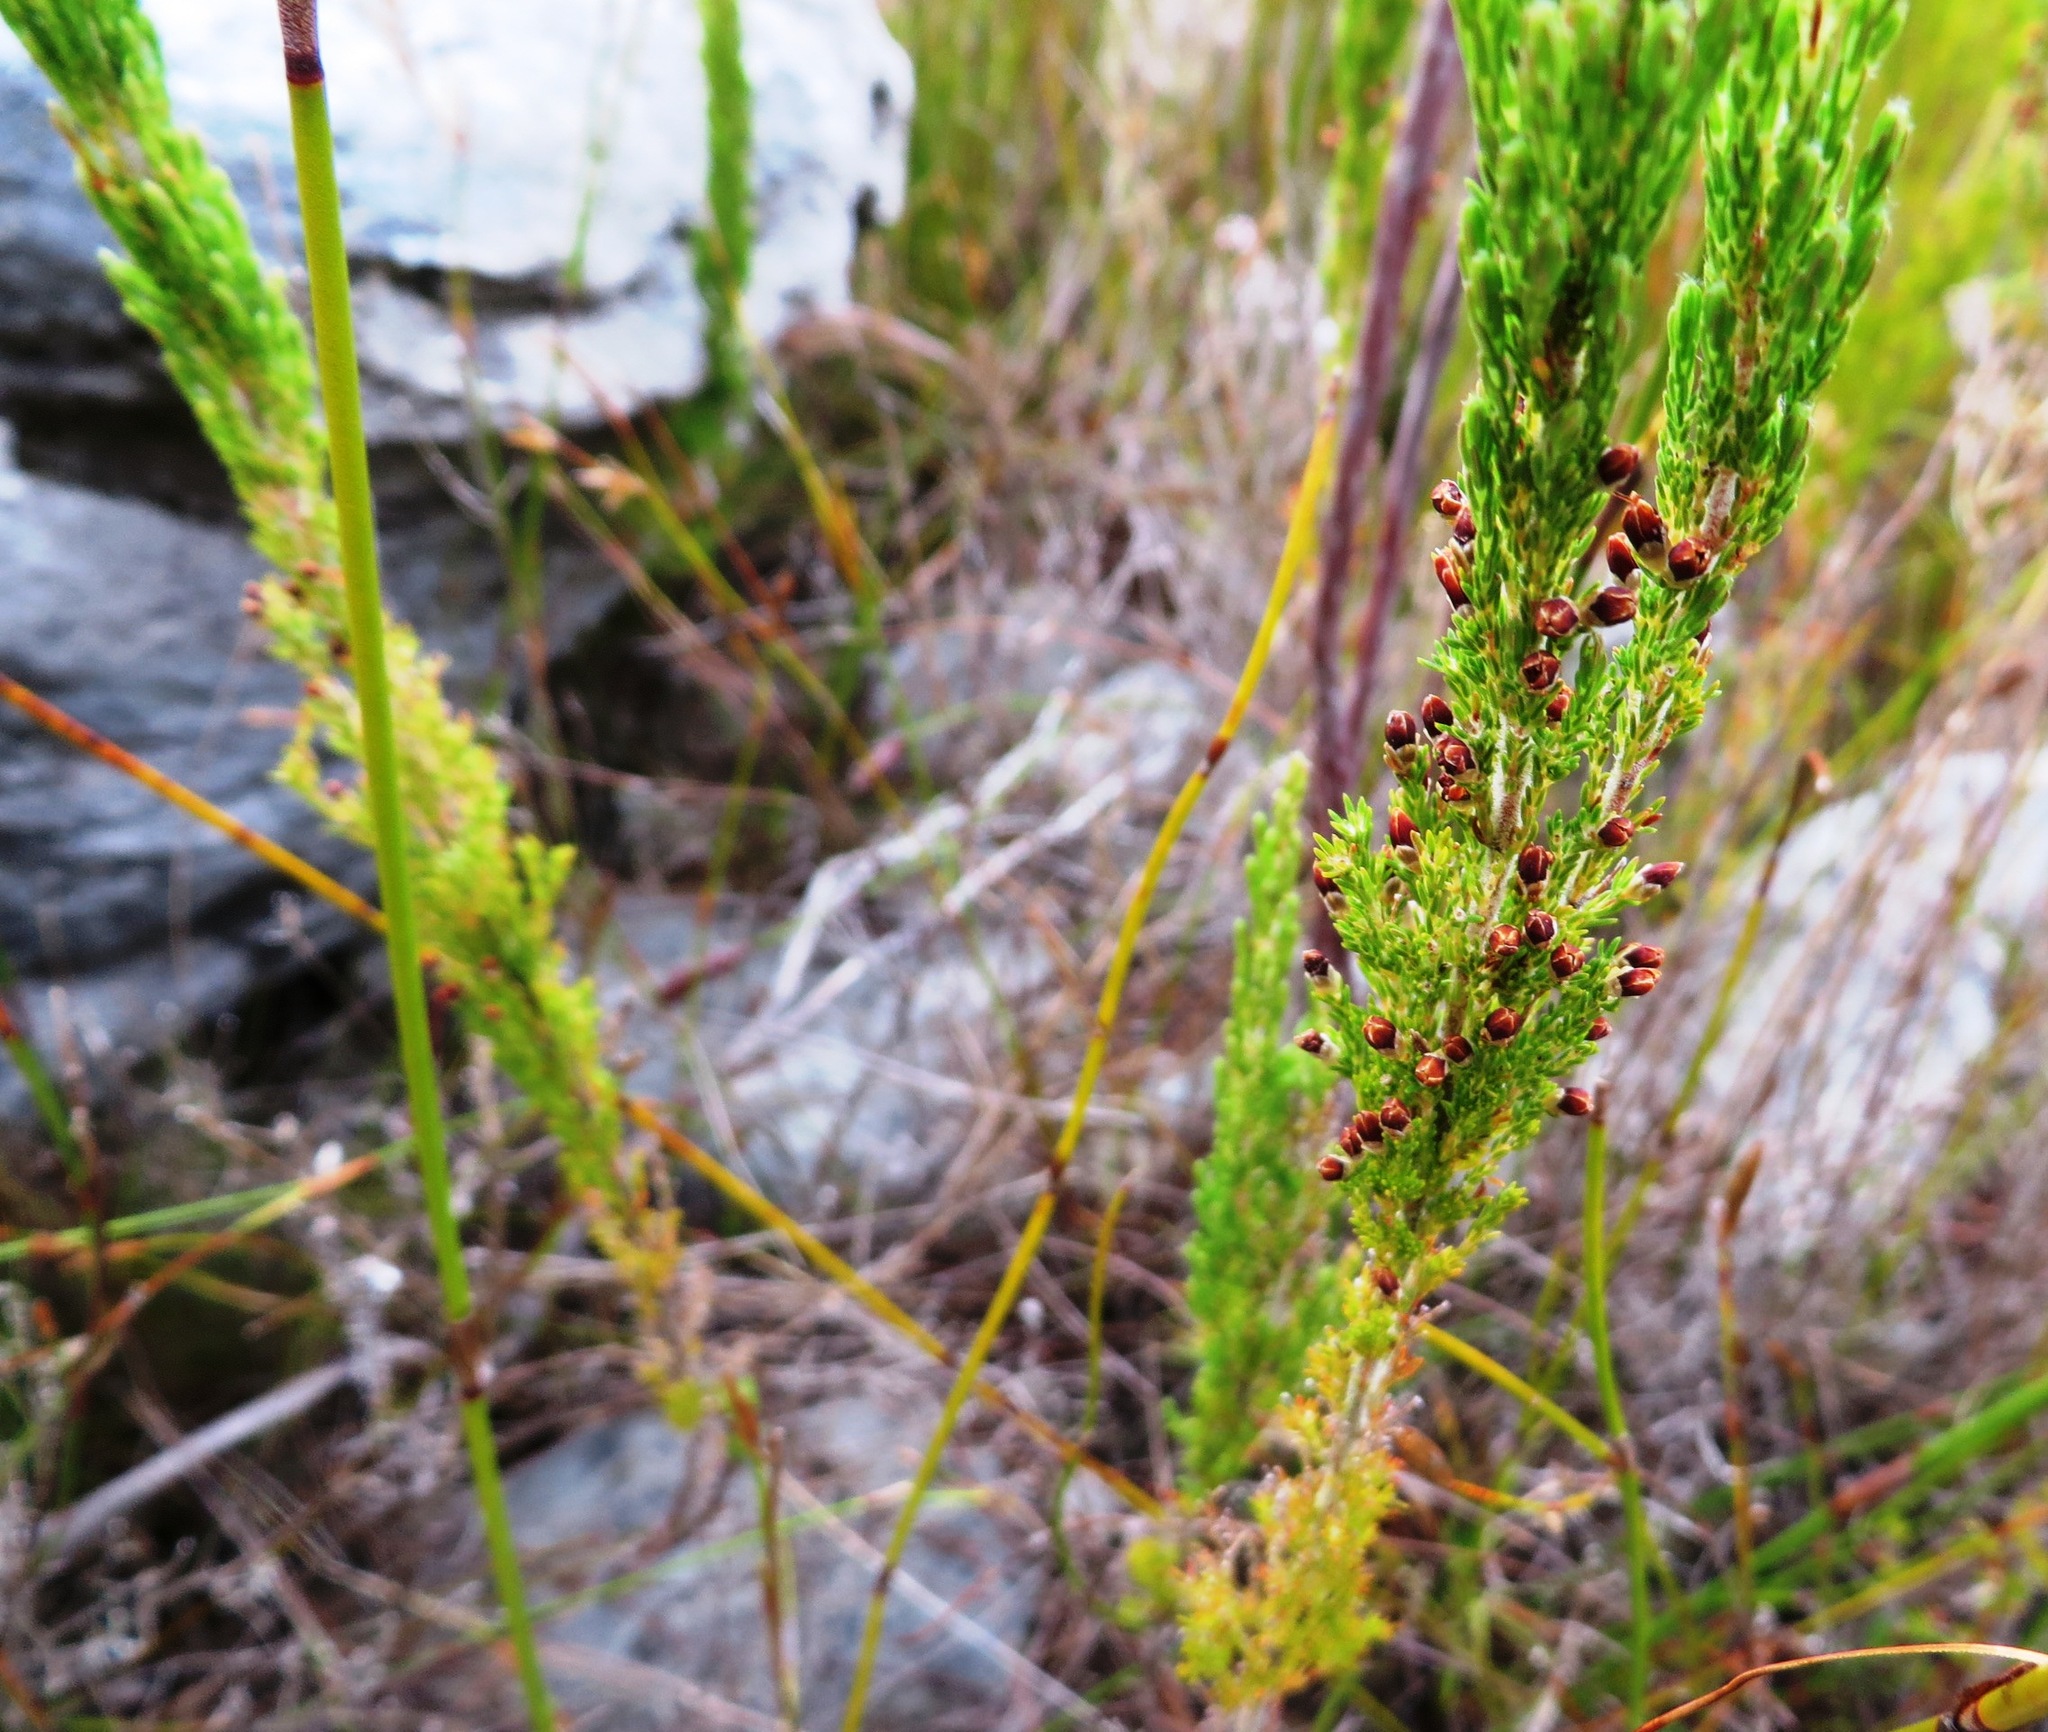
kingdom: Plantae
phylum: Tracheophyta
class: Magnoliopsida
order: Ericales
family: Ericaceae
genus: Erica
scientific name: Erica jacksoniana
